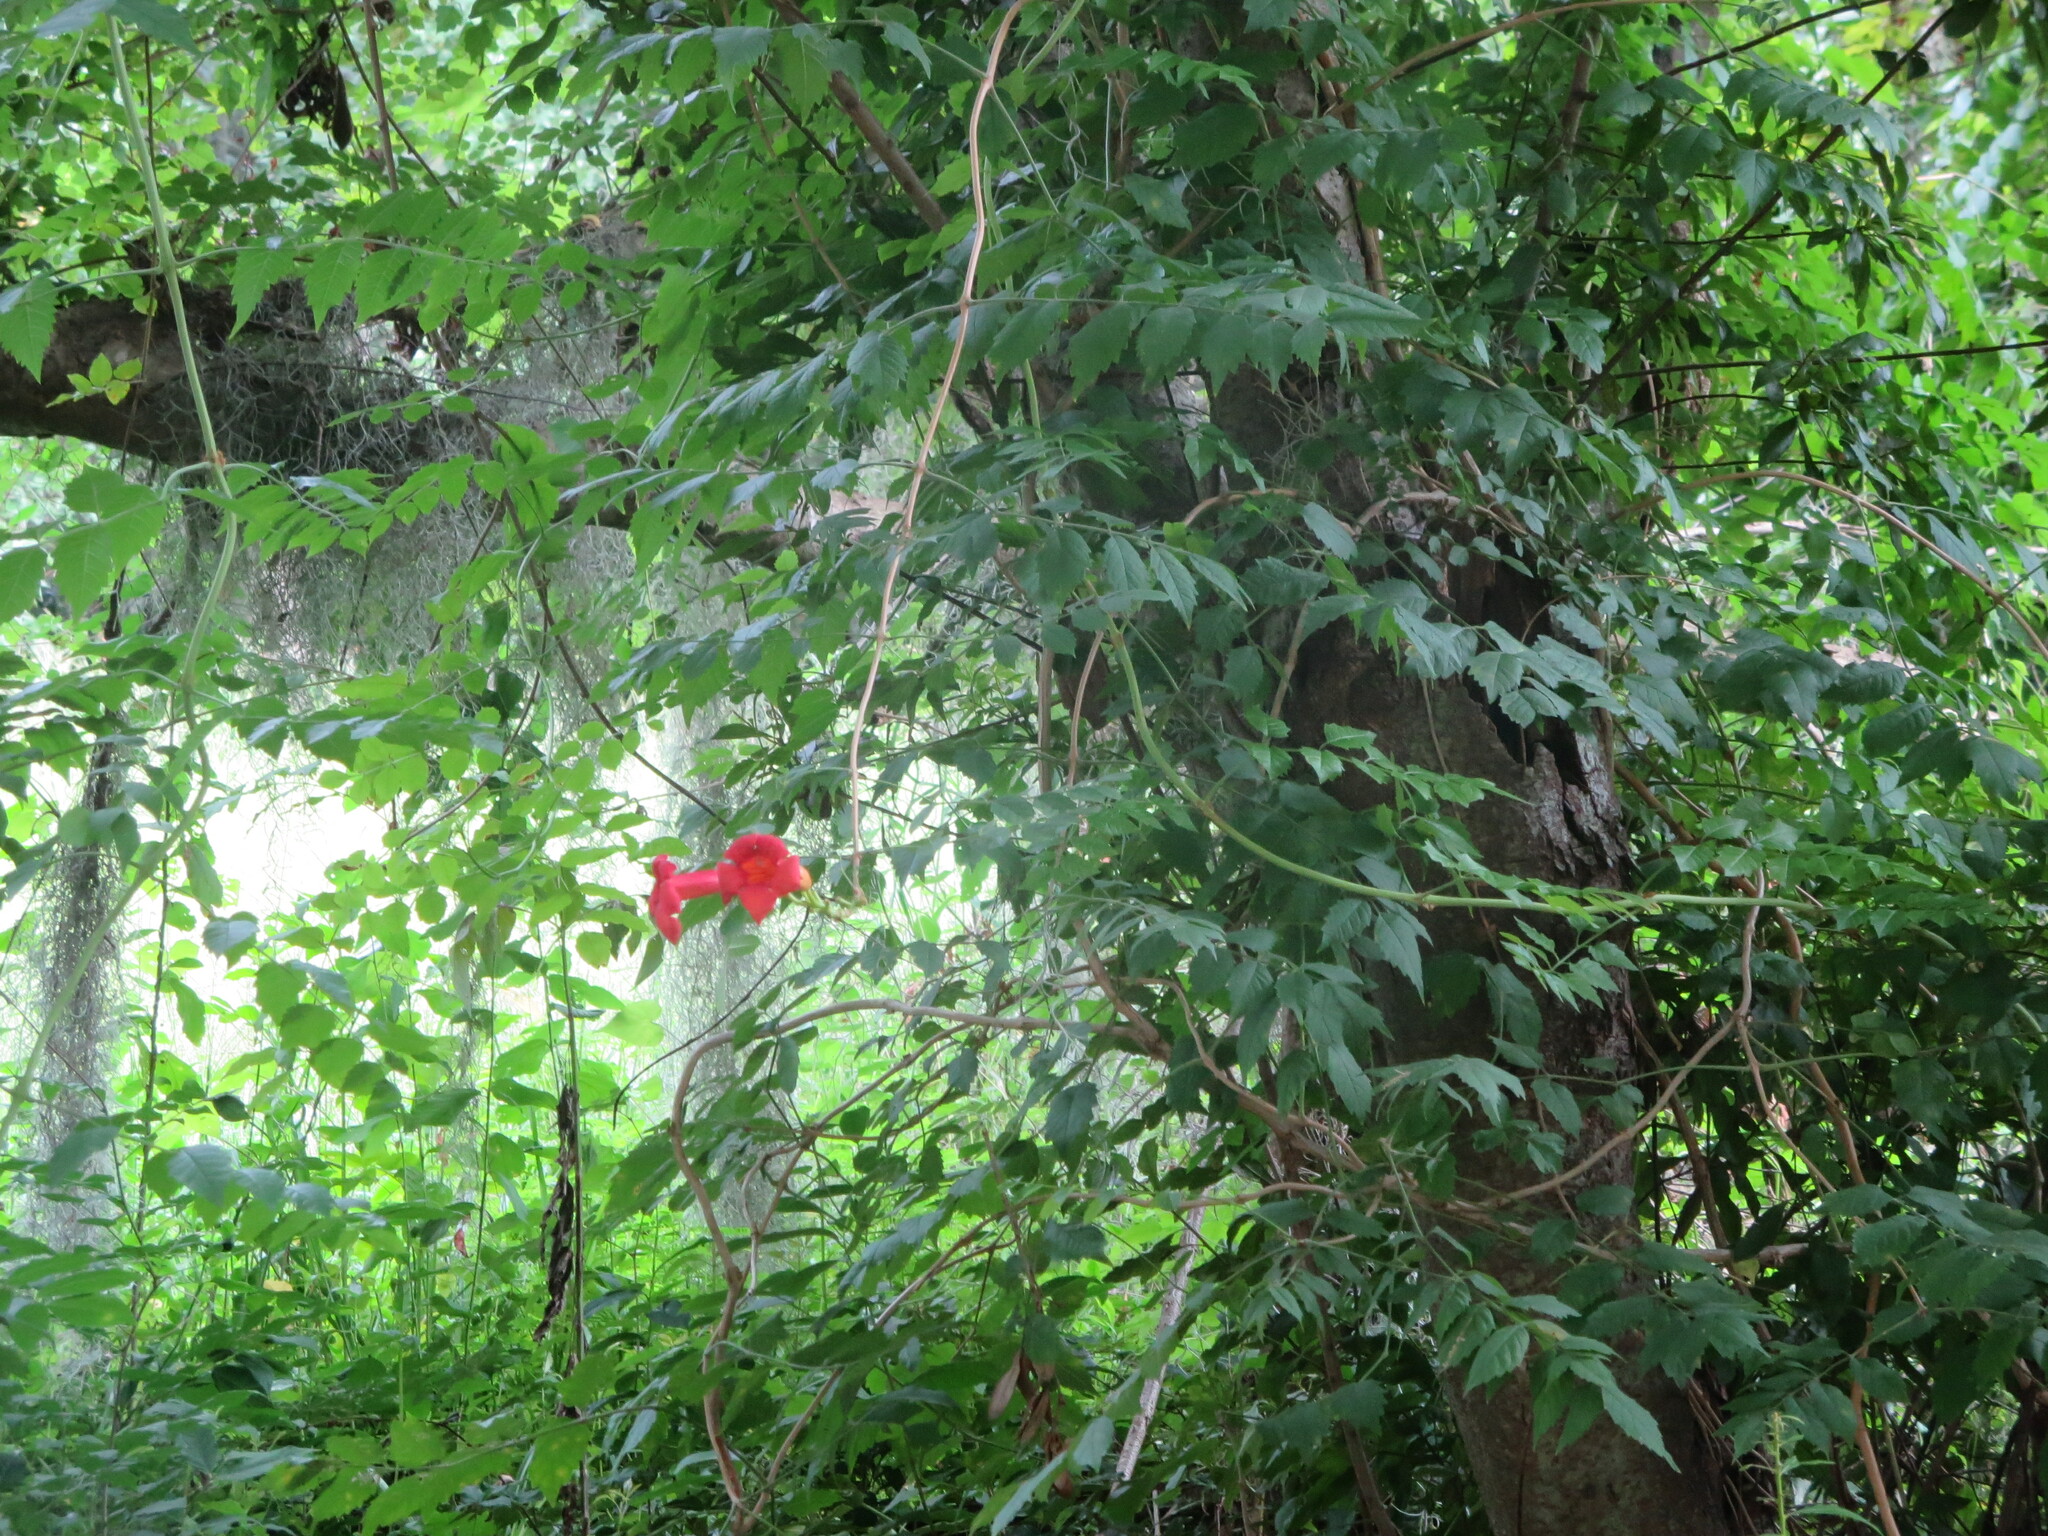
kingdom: Plantae
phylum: Tracheophyta
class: Magnoliopsida
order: Lamiales
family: Bignoniaceae
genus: Campsis
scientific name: Campsis radicans
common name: Trumpet-creeper
